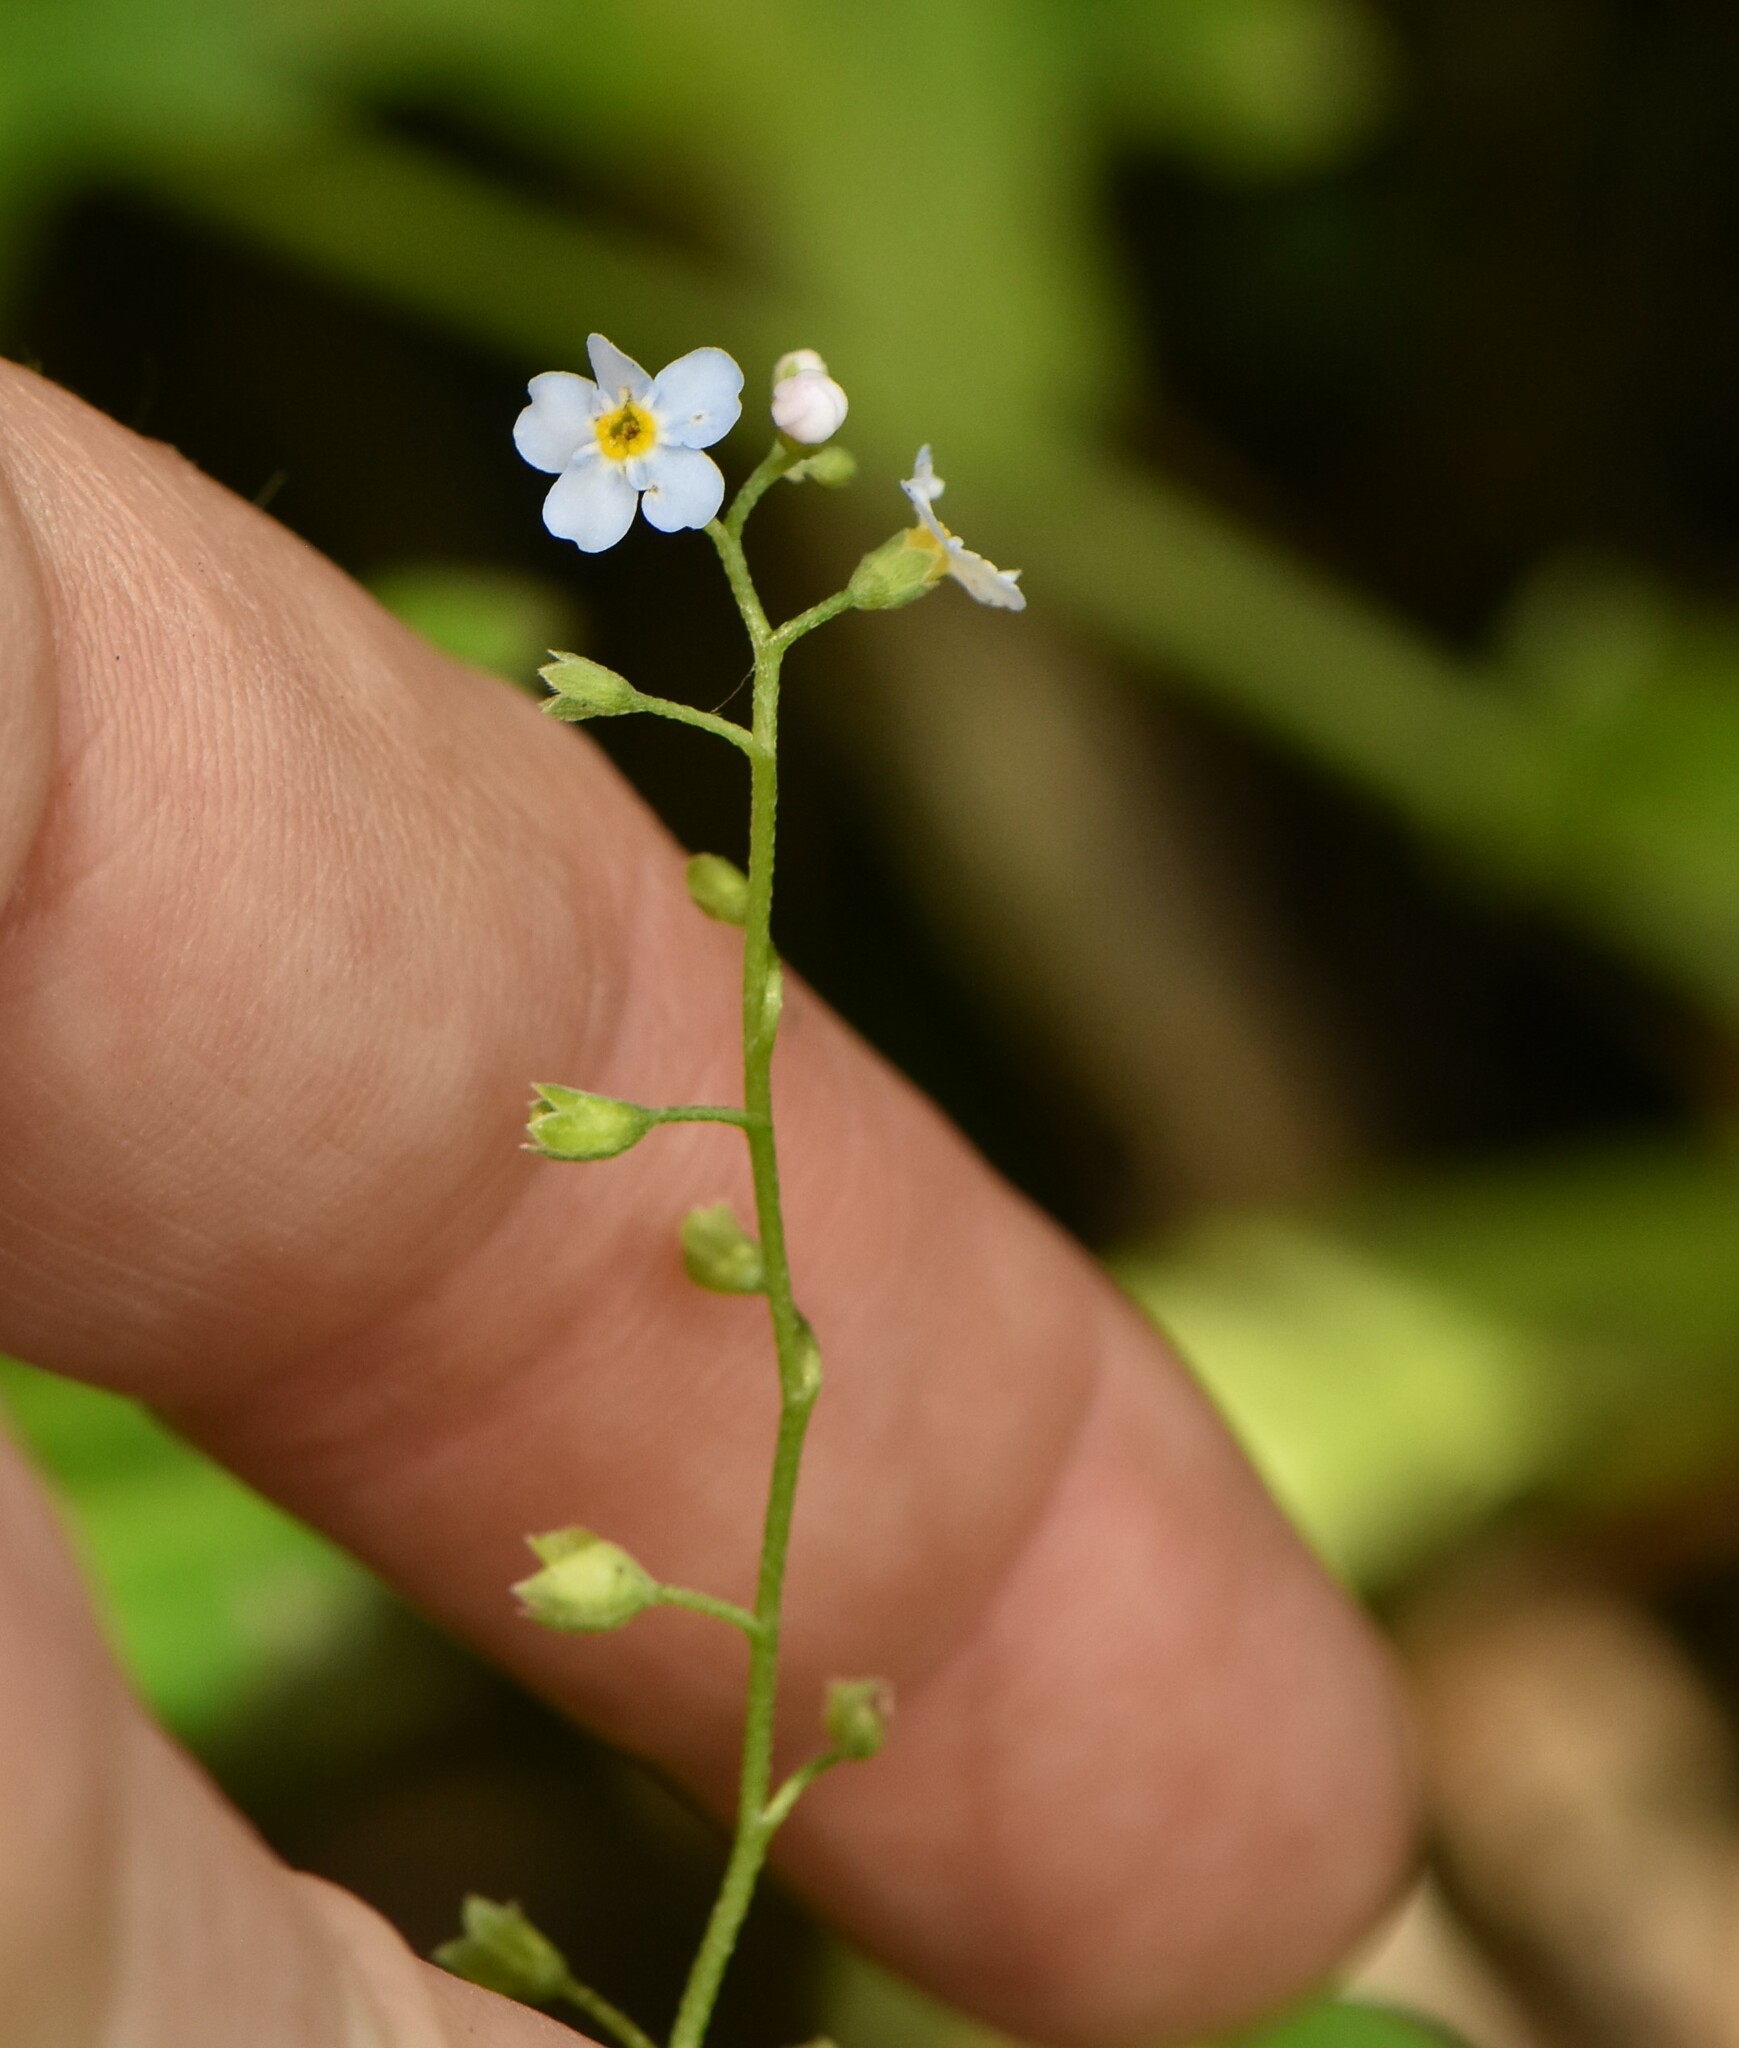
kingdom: Plantae
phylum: Tracheophyta
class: Magnoliopsida
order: Boraginales
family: Boraginaceae
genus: Myosotis
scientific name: Myosotis scorpioides
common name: Water forget-me-not
